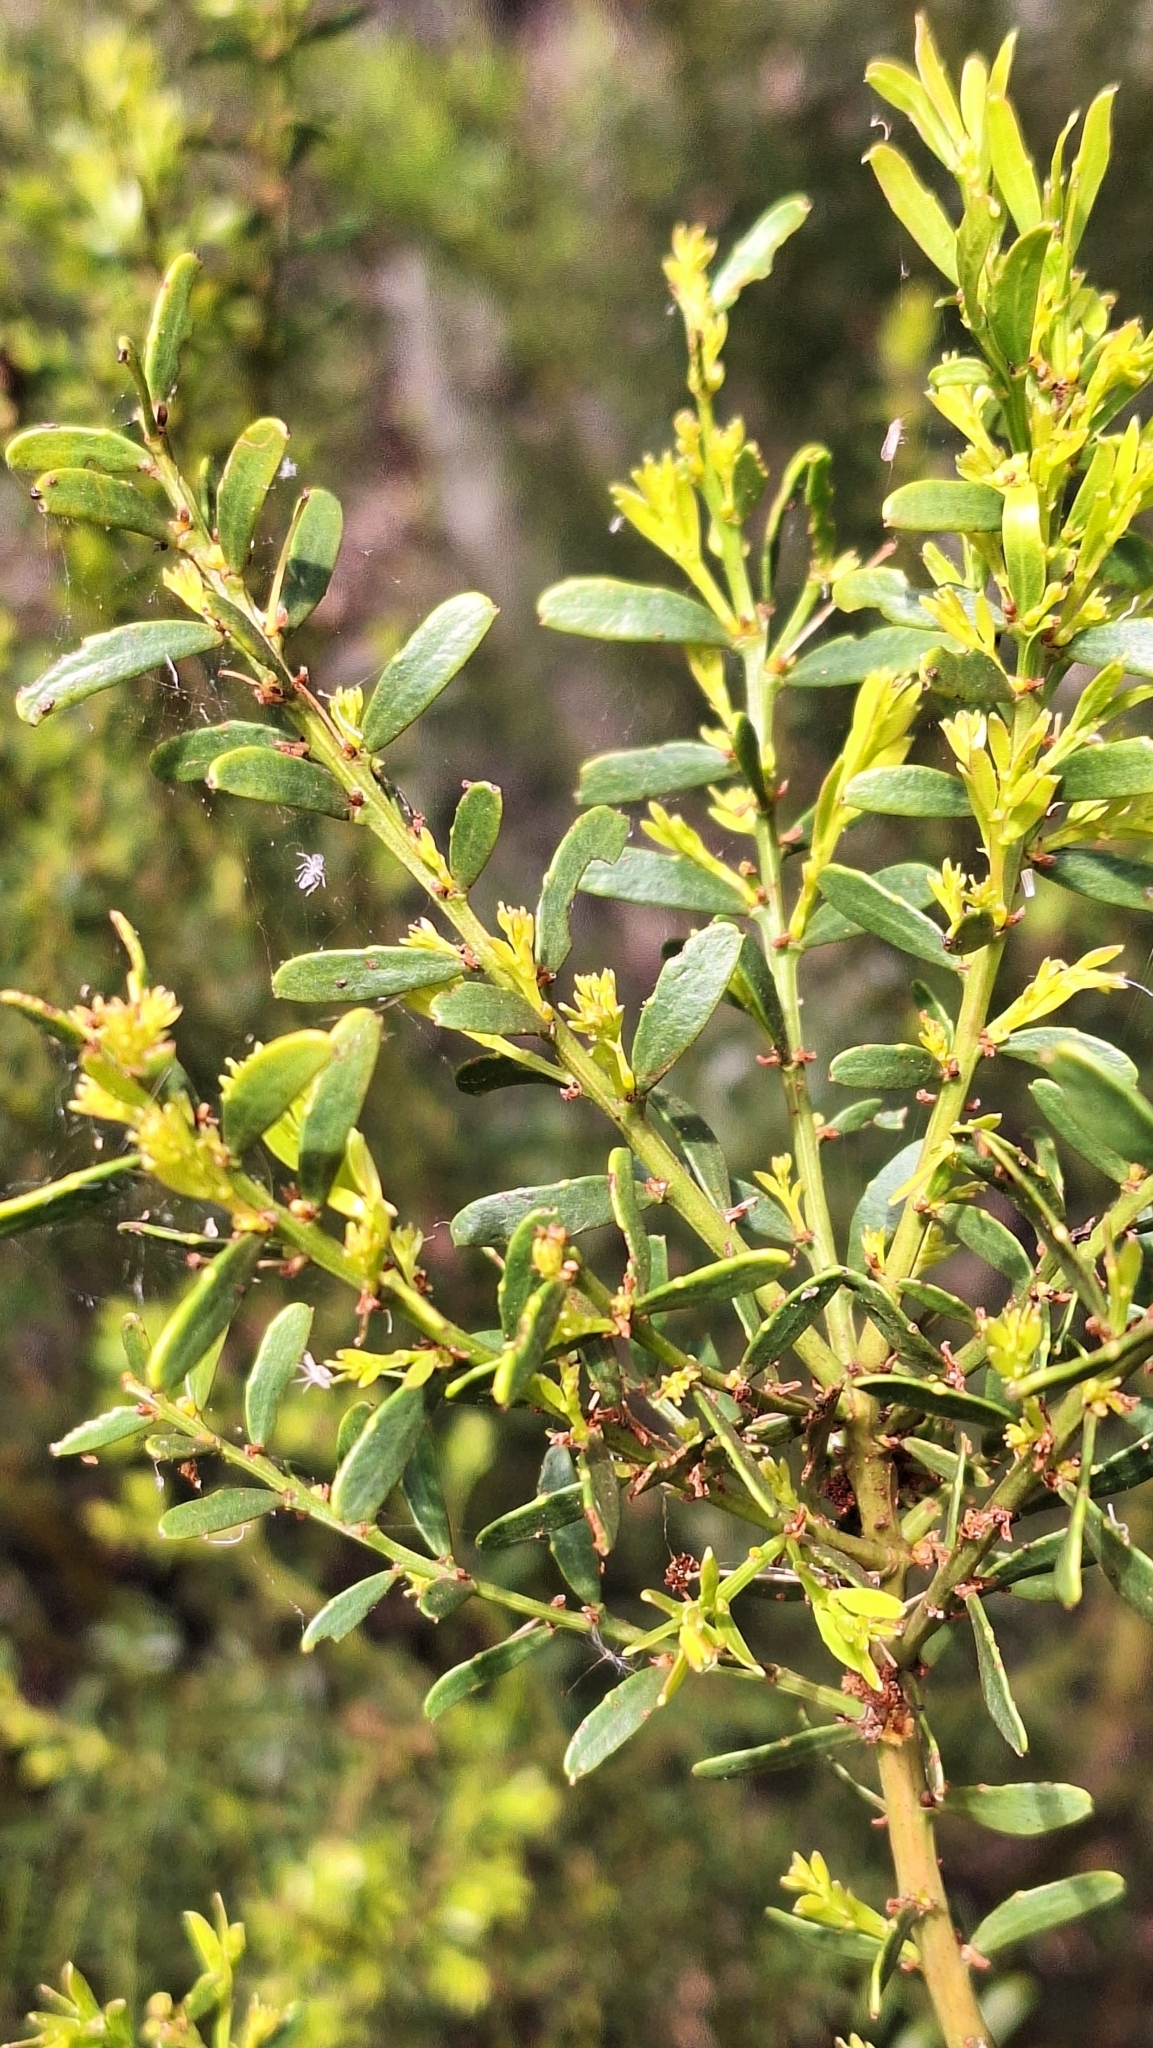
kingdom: Plantae
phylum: Tracheophyta
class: Magnoliopsida
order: Fabales
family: Fabaceae
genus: Acacia
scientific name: Acacia acinacea
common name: Gold-dust acacia
